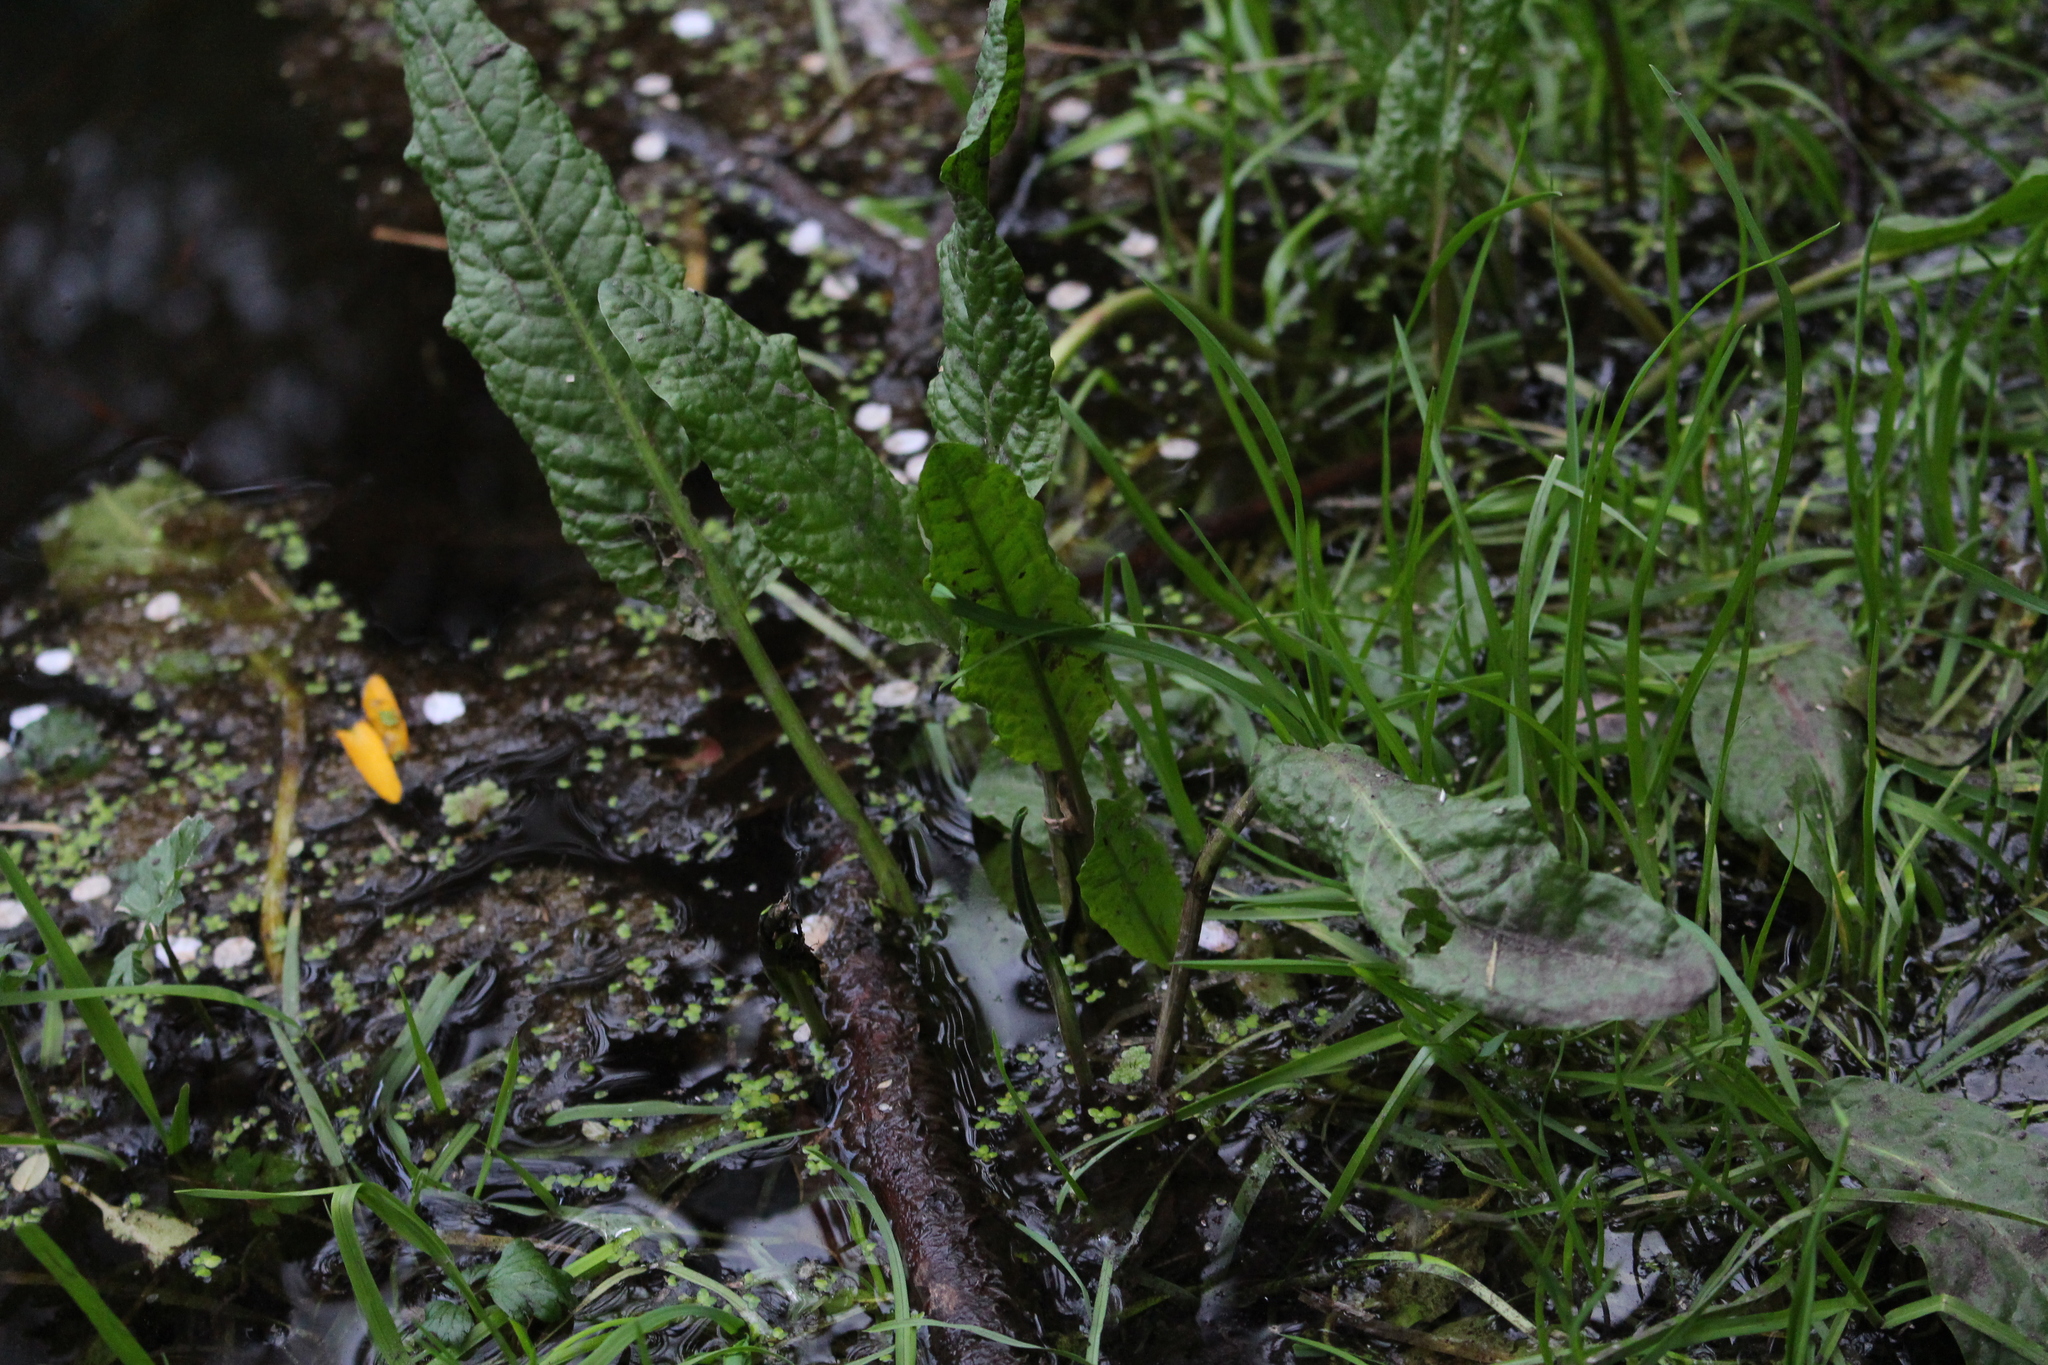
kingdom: Plantae
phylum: Tracheophyta
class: Magnoliopsida
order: Caryophyllales
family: Polygonaceae
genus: Rumex
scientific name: Rumex conglomeratus
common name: Clustered dock
